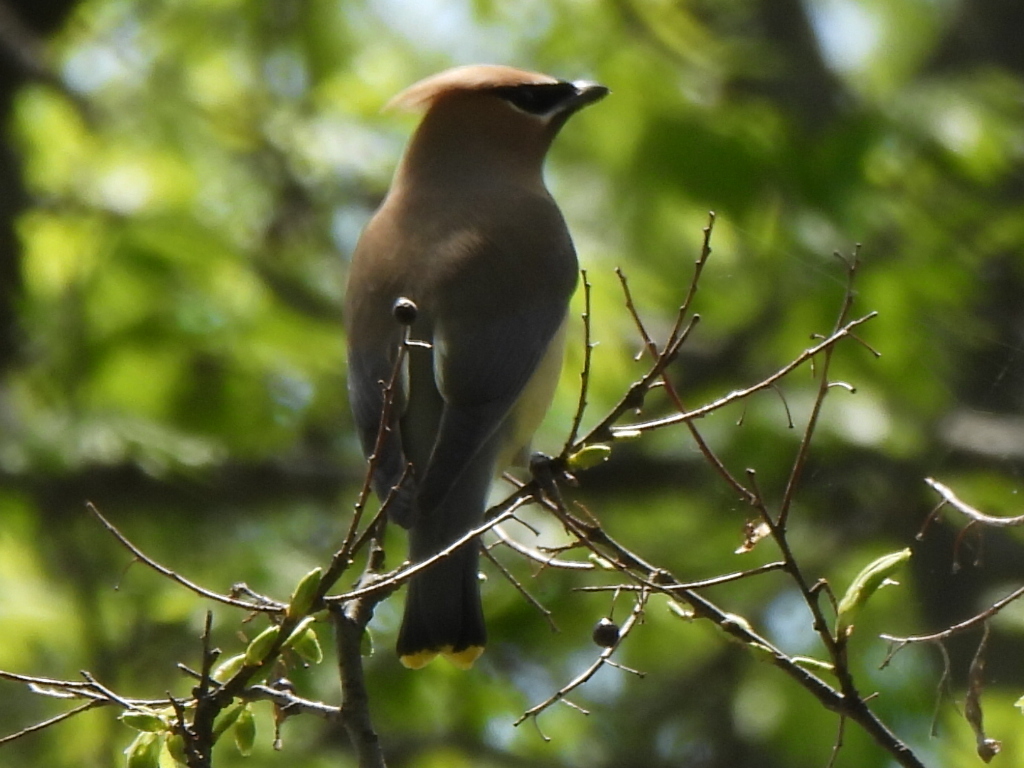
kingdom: Animalia
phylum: Chordata
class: Aves
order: Passeriformes
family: Bombycillidae
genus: Bombycilla
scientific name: Bombycilla cedrorum
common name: Cedar waxwing
